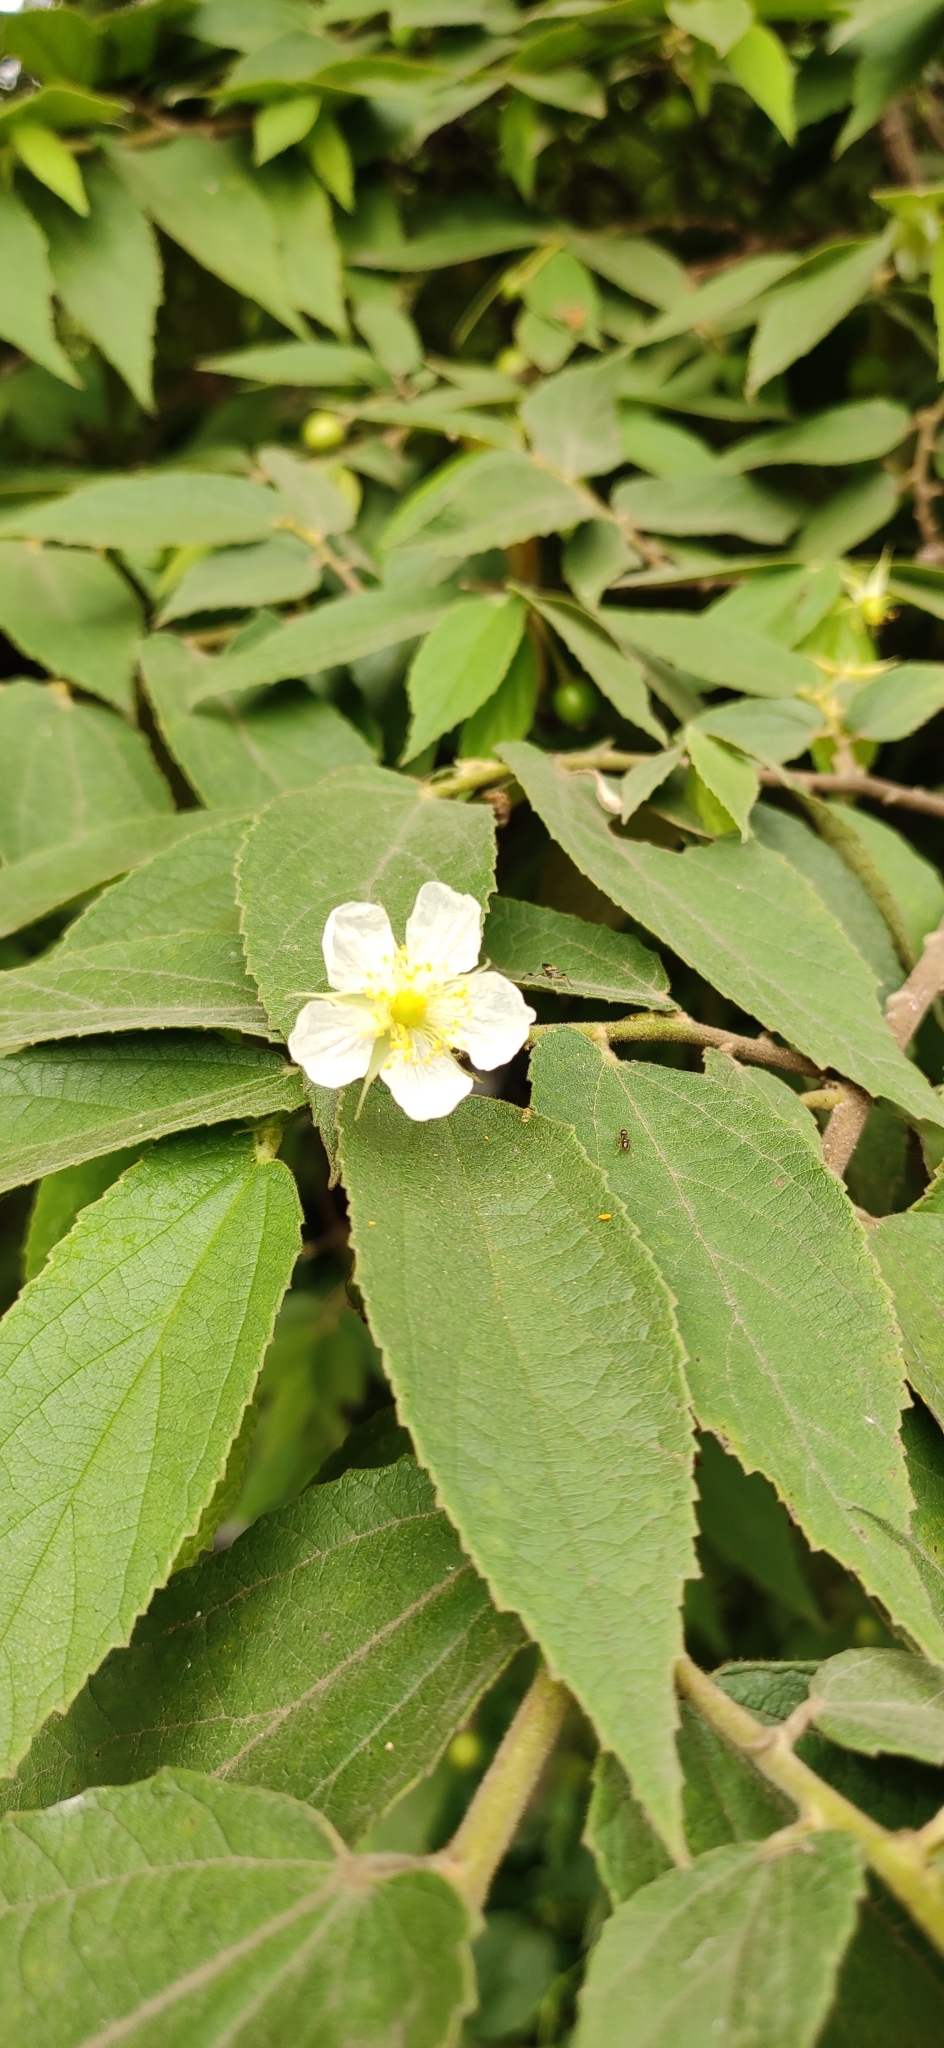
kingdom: Plantae
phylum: Tracheophyta
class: Magnoliopsida
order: Malvales
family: Muntingiaceae
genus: Muntingia
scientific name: Muntingia calabura
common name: Strawberrytree
